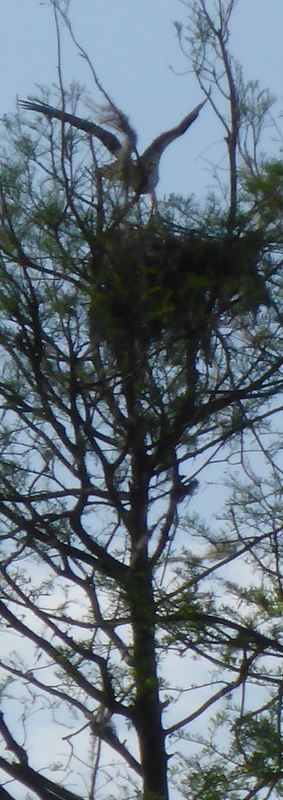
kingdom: Animalia
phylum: Chordata
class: Aves
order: Accipitriformes
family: Pandionidae
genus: Pandion
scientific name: Pandion haliaetus
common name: Osprey
